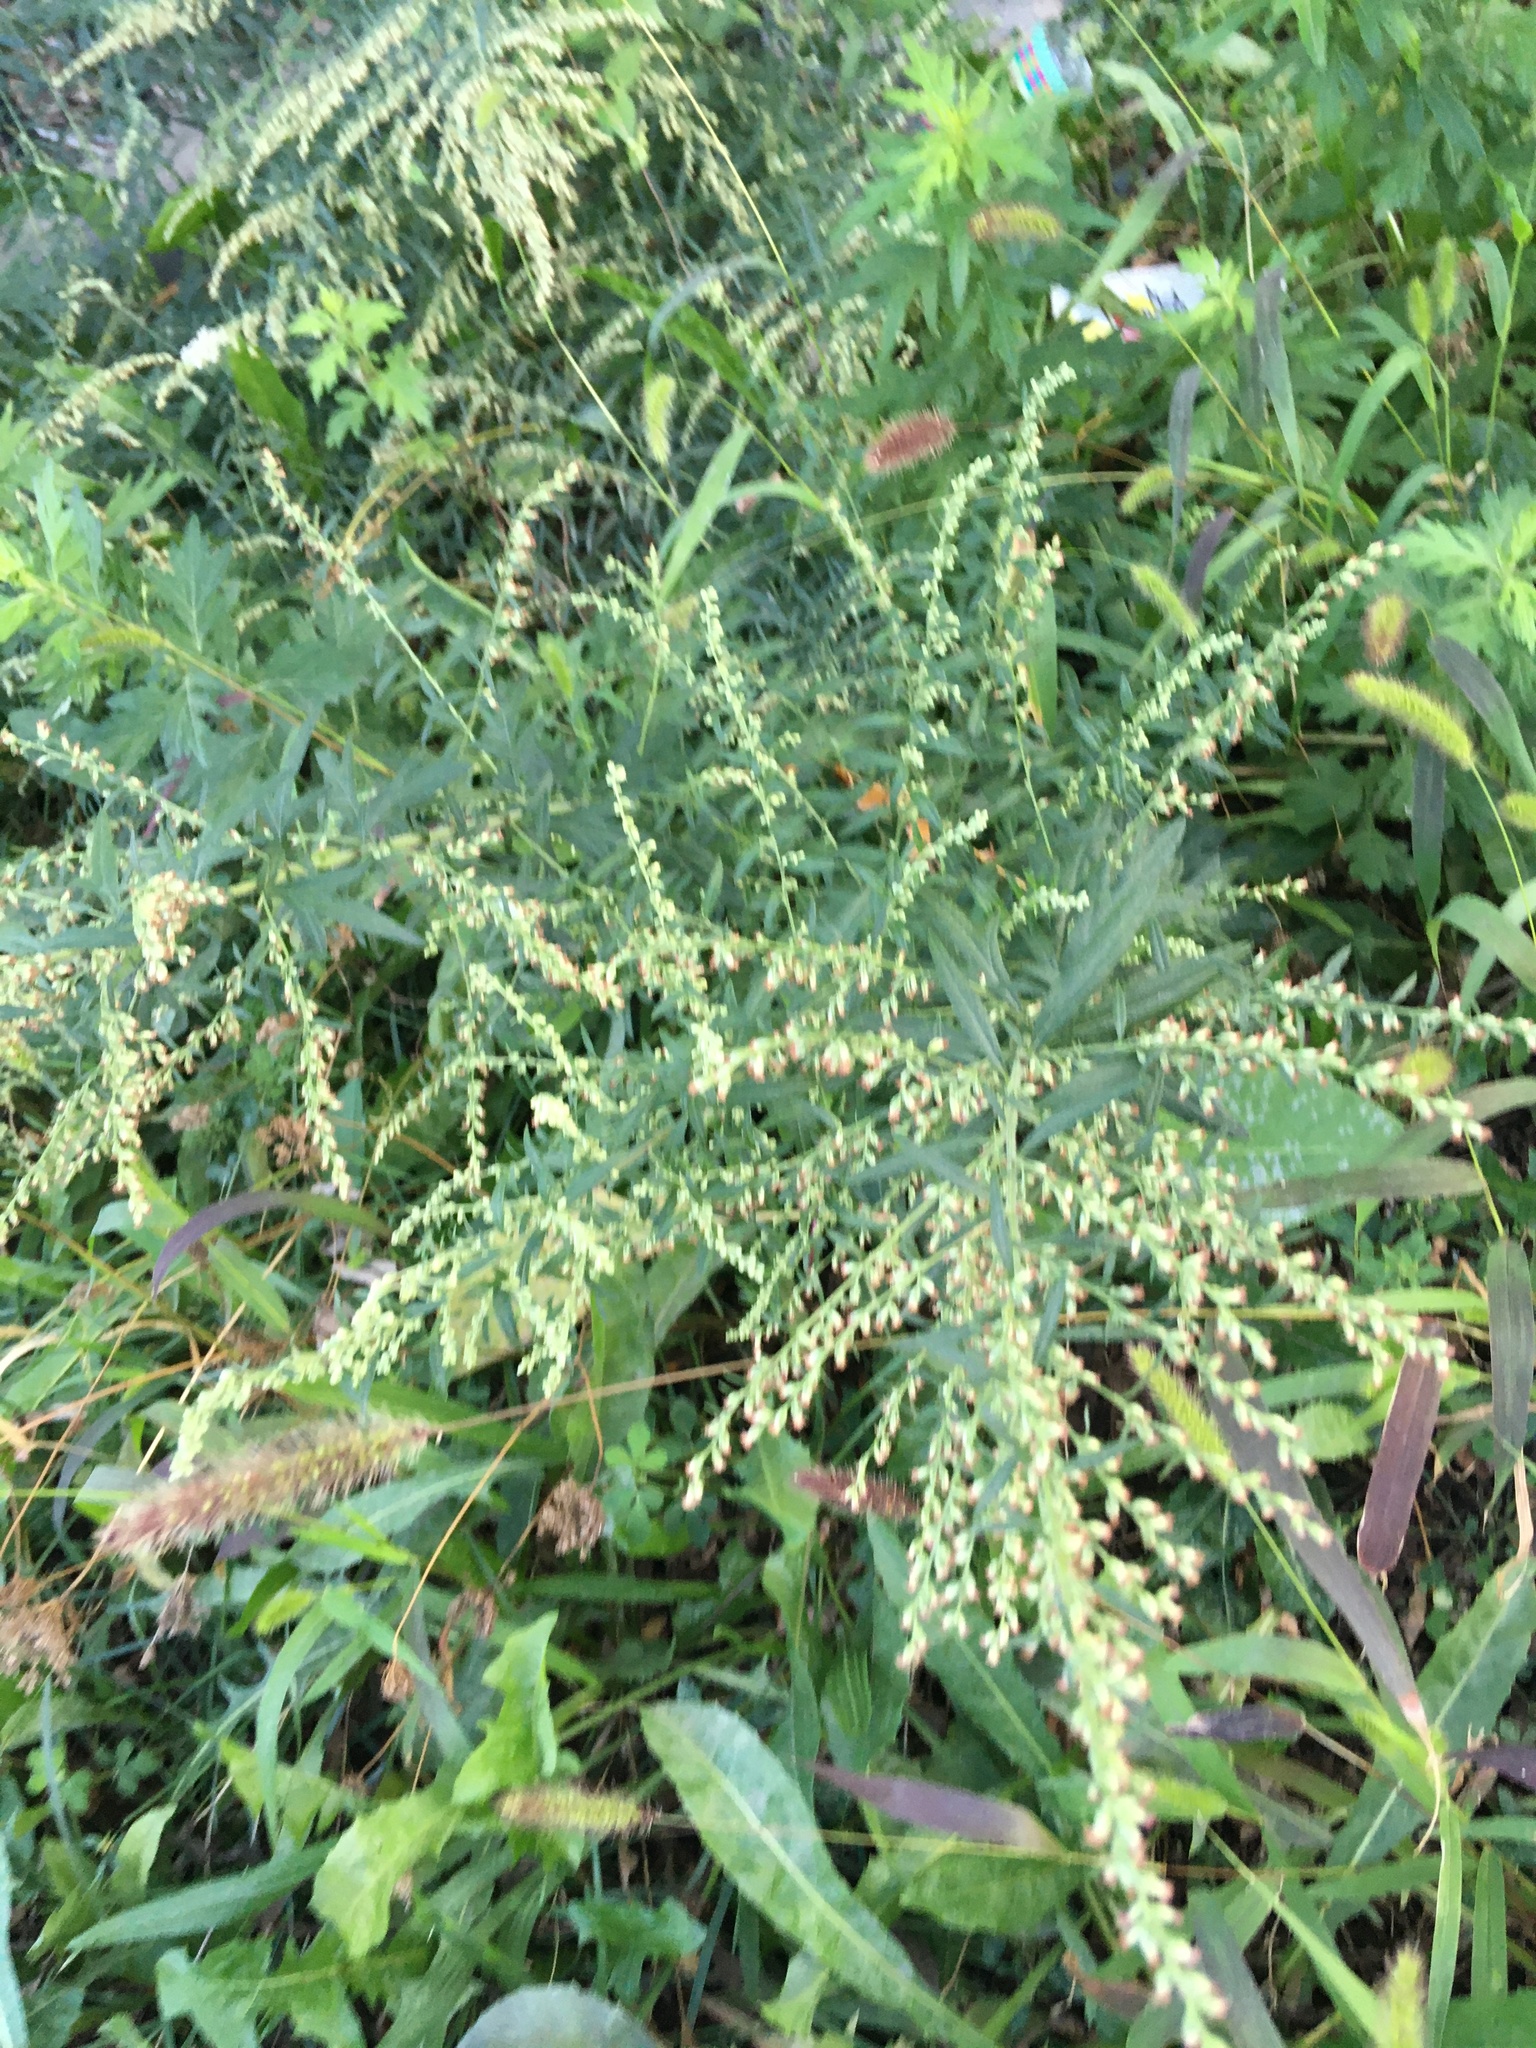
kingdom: Plantae
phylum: Tracheophyta
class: Magnoliopsida
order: Asterales
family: Asteraceae
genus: Artemisia
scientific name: Artemisia vulgaris
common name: Mugwort
